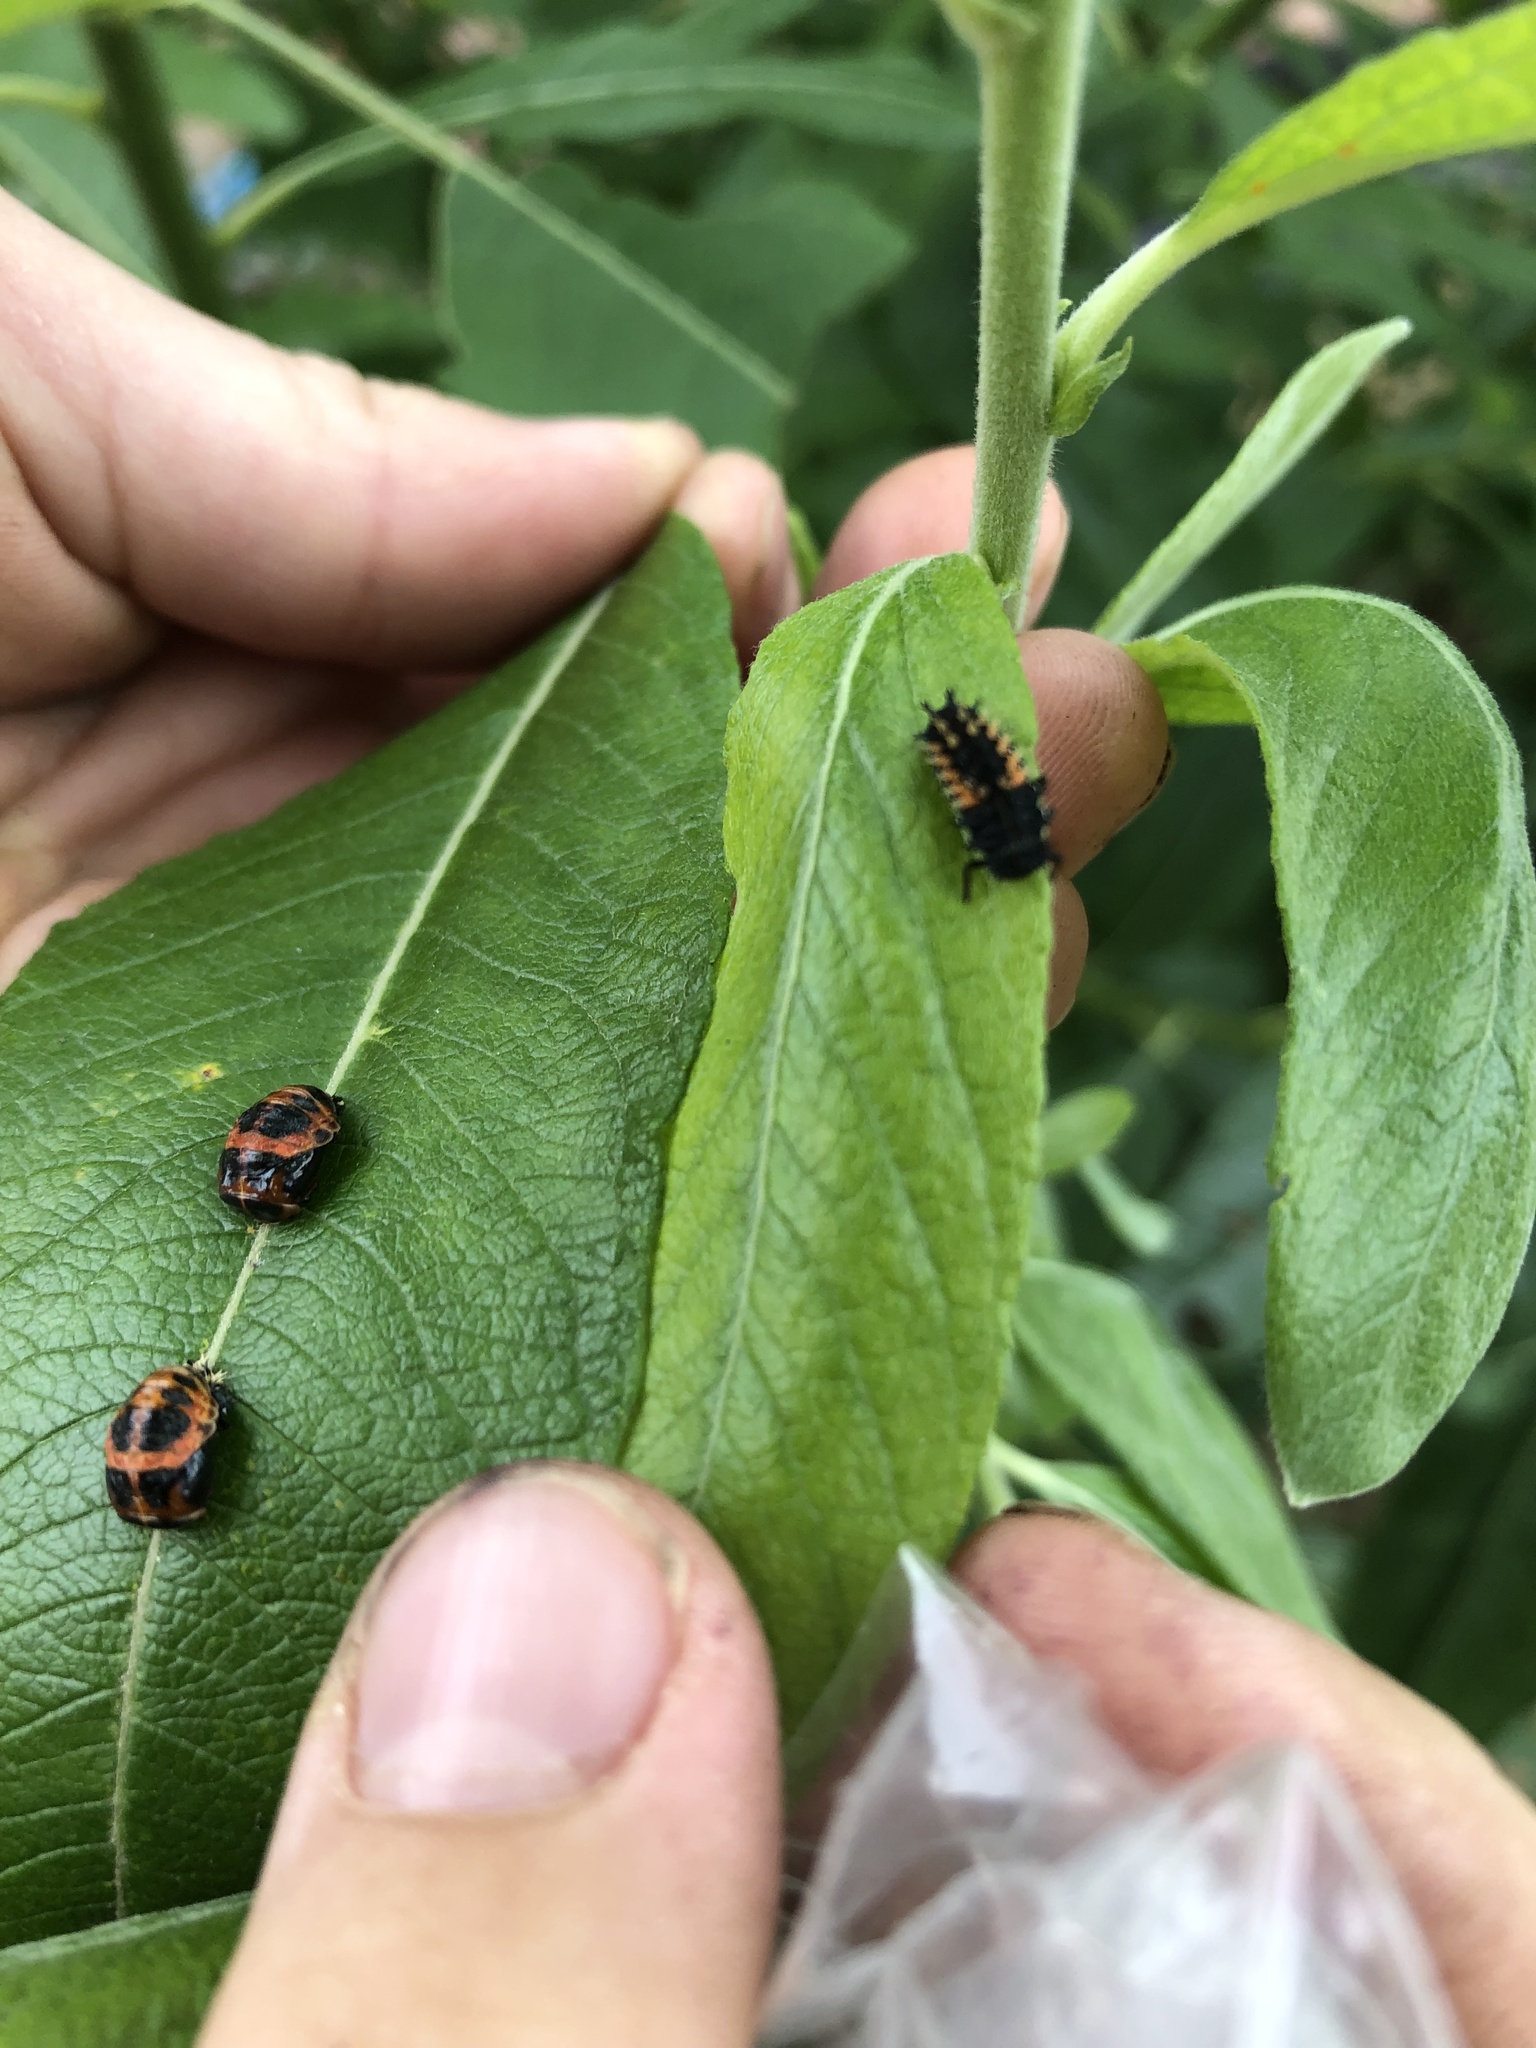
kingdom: Animalia
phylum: Arthropoda
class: Insecta
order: Coleoptera
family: Coccinellidae
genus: Harmonia
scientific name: Harmonia axyridis
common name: Harlequin ladybird
